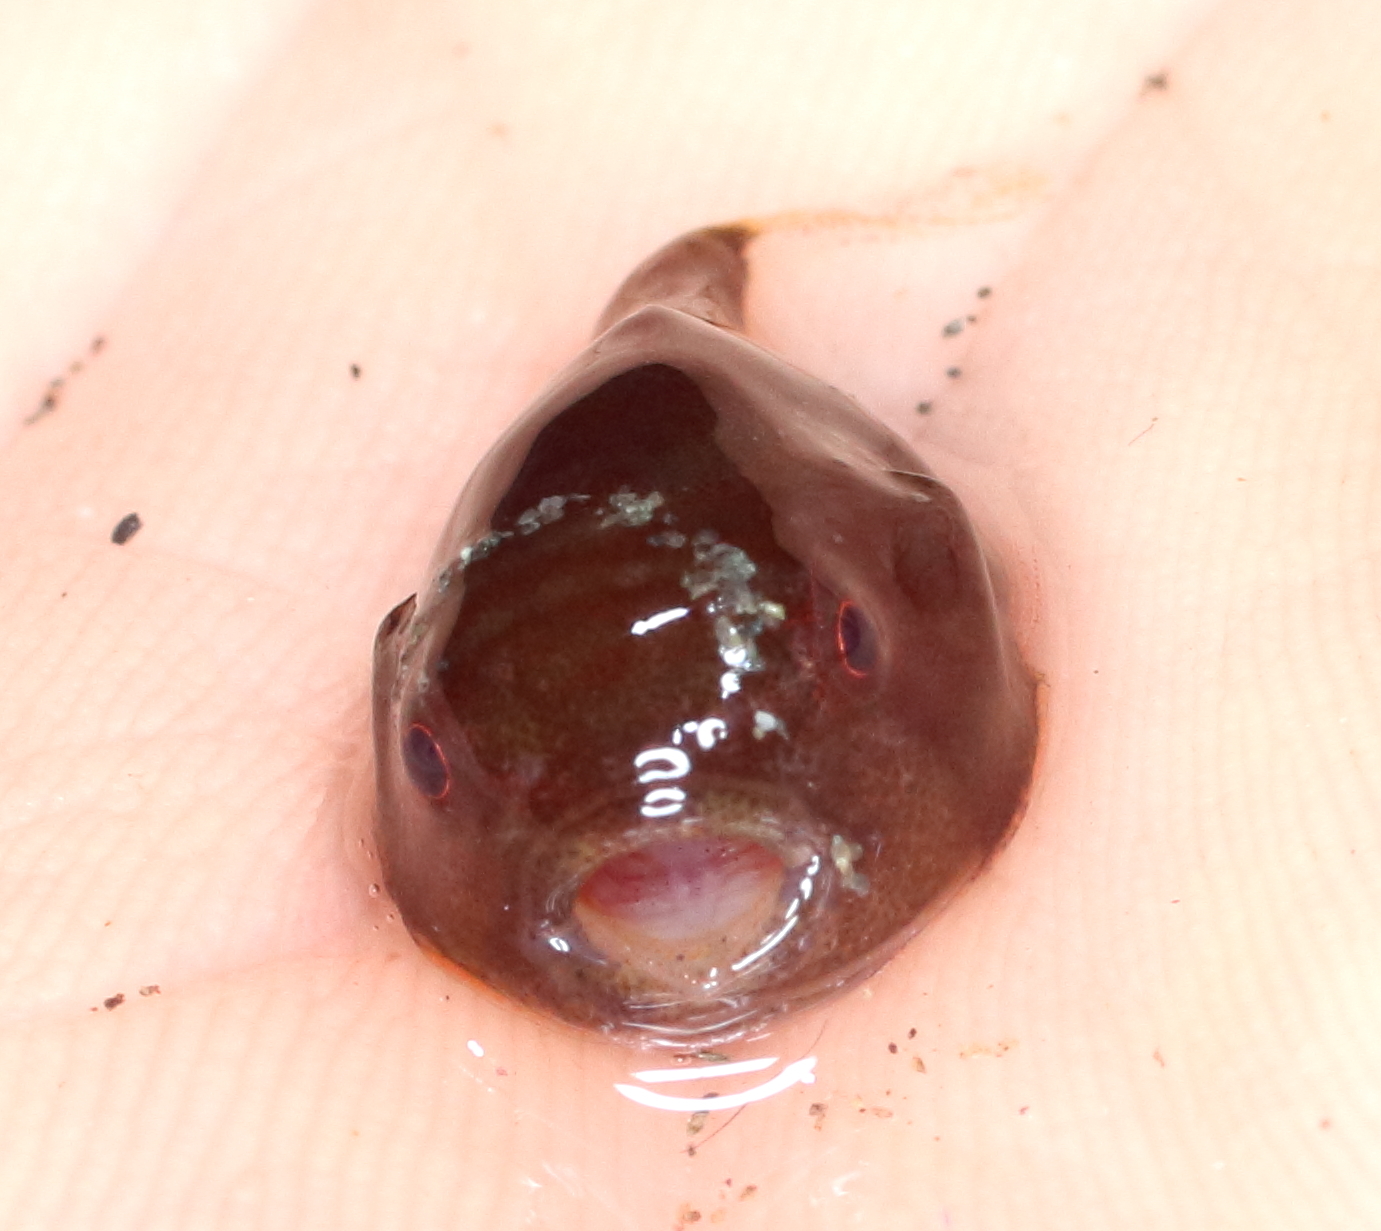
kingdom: Animalia
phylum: Chordata
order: Scorpaeniformes
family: Cyclopteridae
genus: Aptocyclus
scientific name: Aptocyclus ventricosus
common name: Smooth lumpsucker
